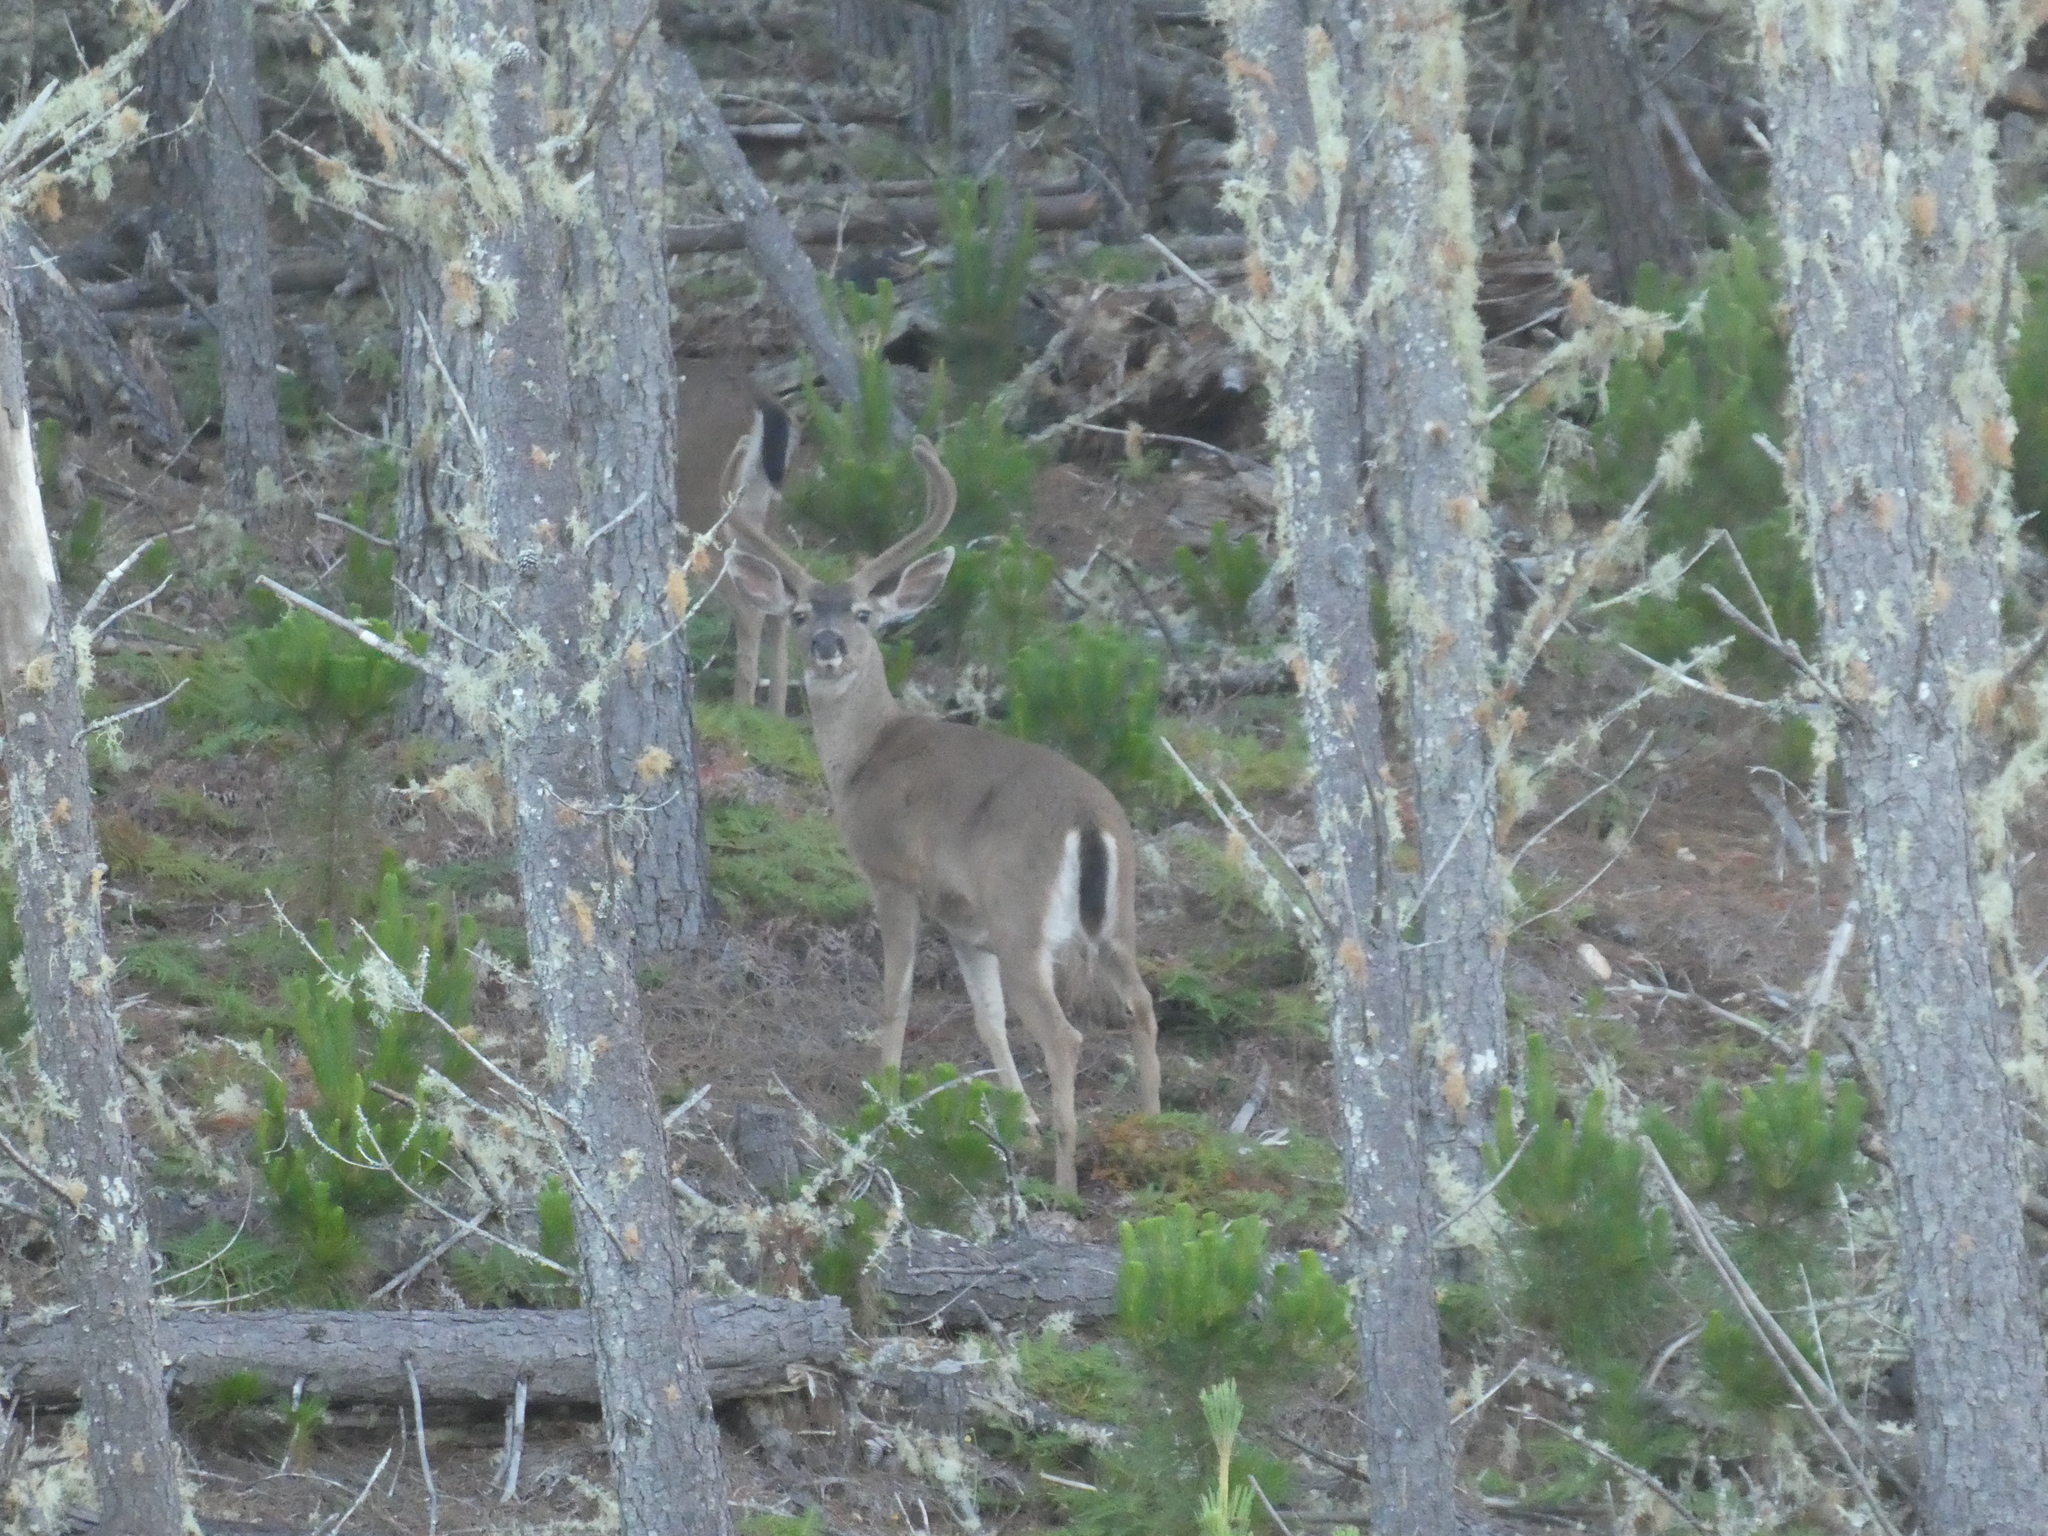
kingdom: Animalia
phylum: Chordata
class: Mammalia
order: Artiodactyla
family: Cervidae
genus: Odocoileus
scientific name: Odocoileus hemionus
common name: Mule deer
